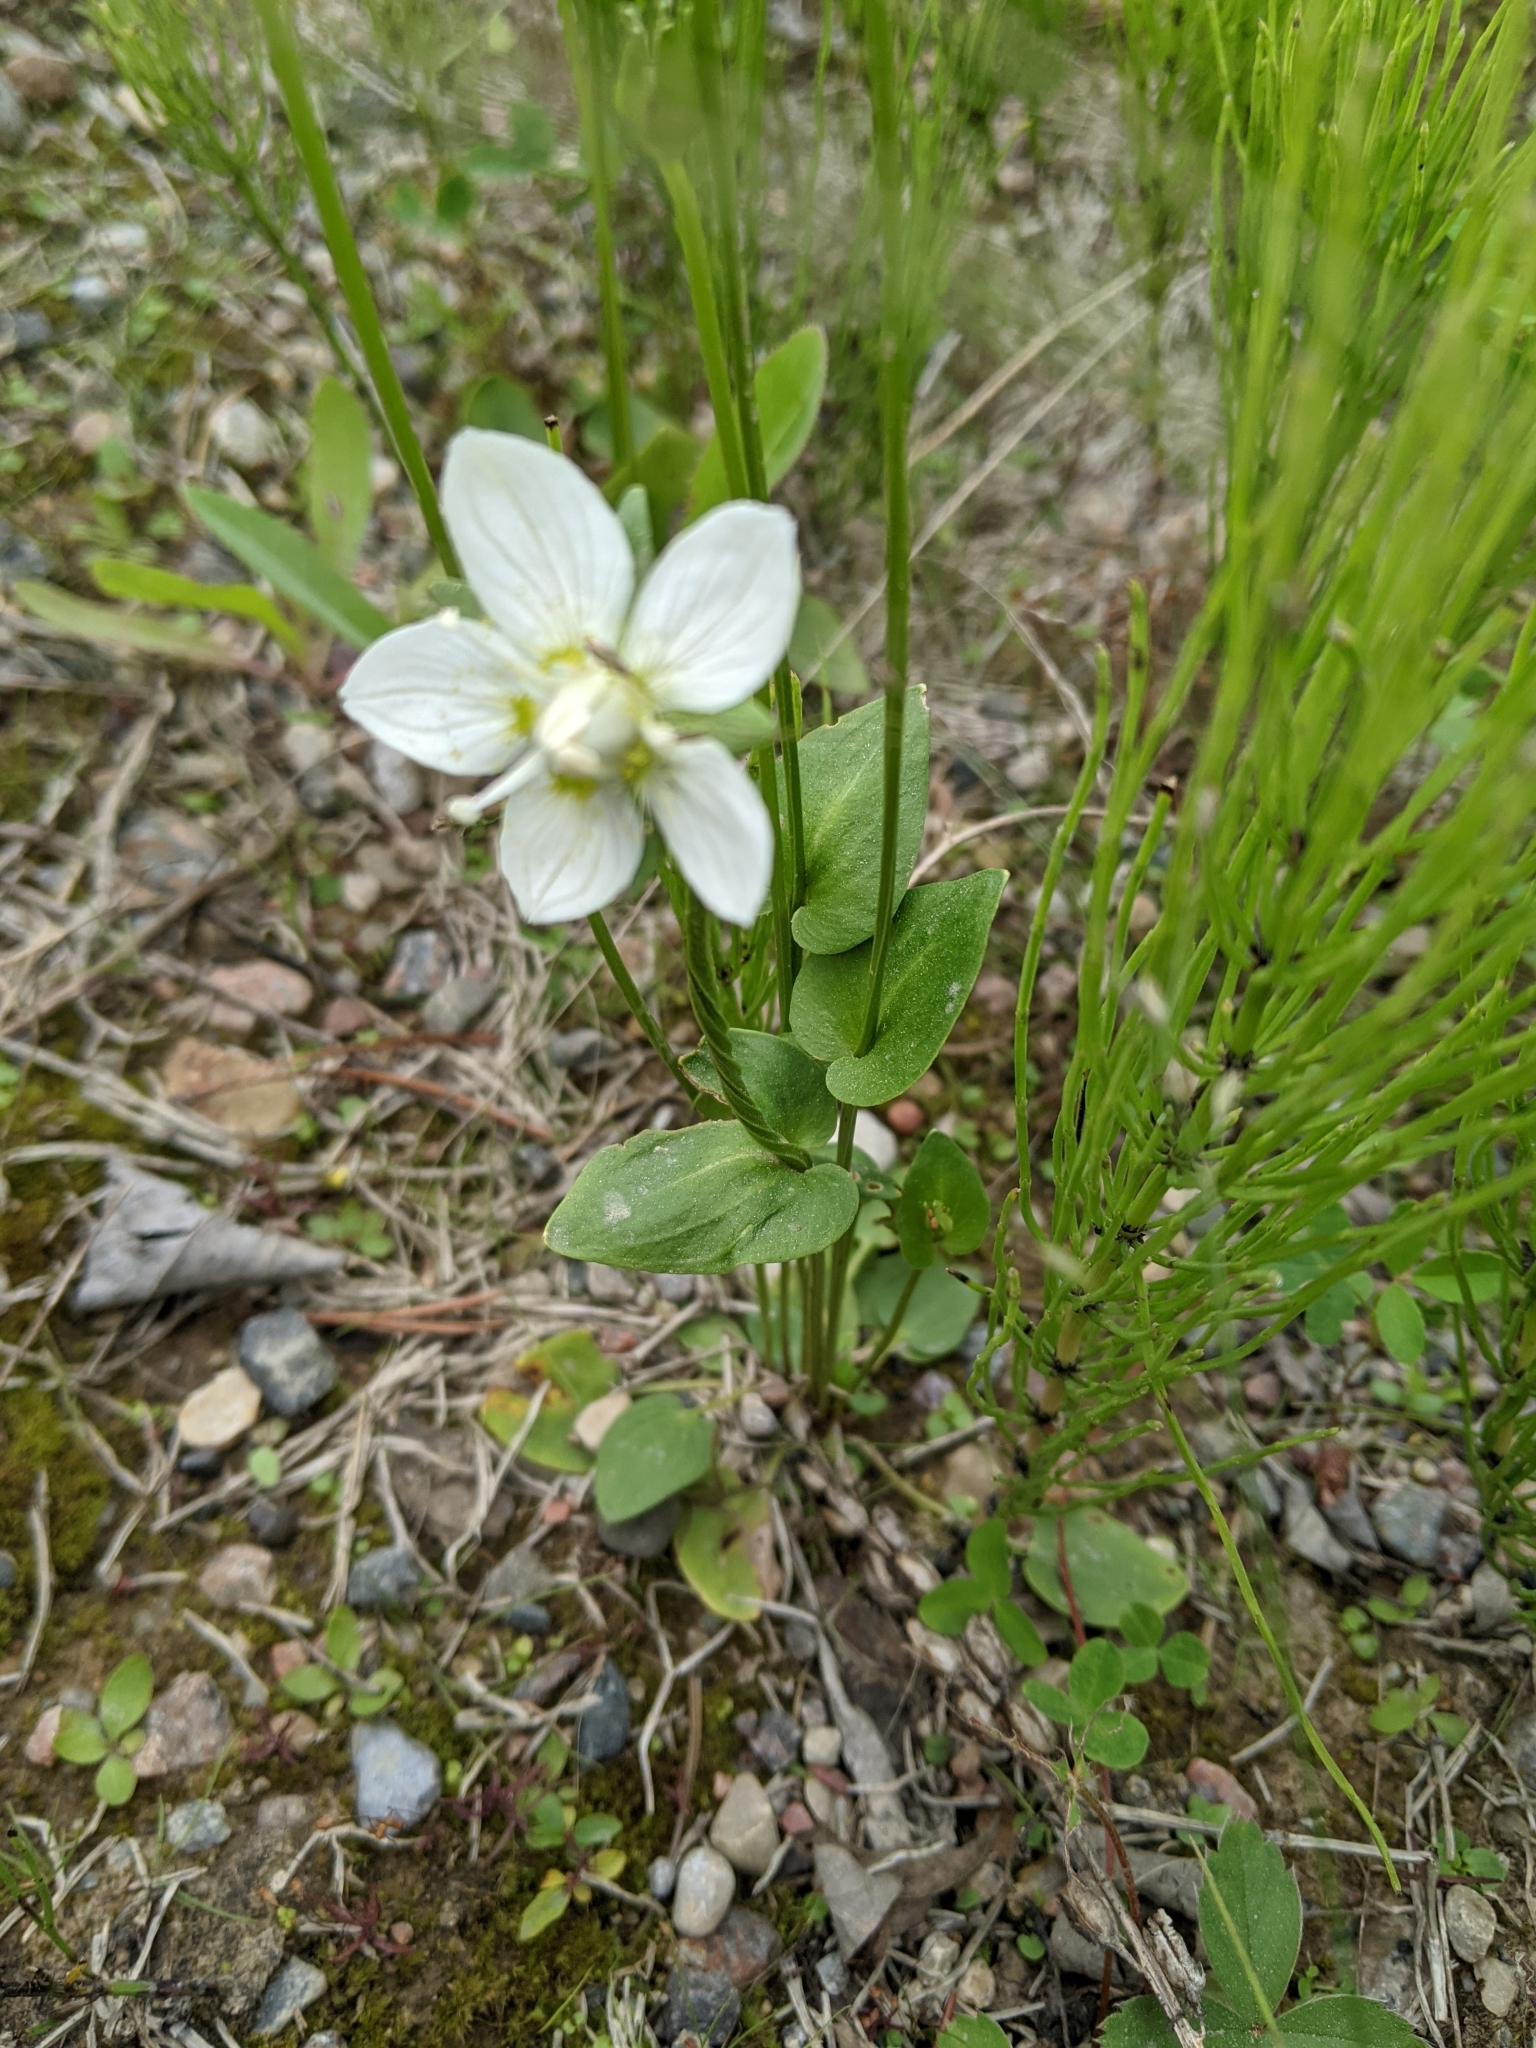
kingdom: Plantae
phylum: Tracheophyta
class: Magnoliopsida
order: Celastrales
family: Parnassiaceae
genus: Parnassia
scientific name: Parnassia palustris
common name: Grass-of-parnassus
